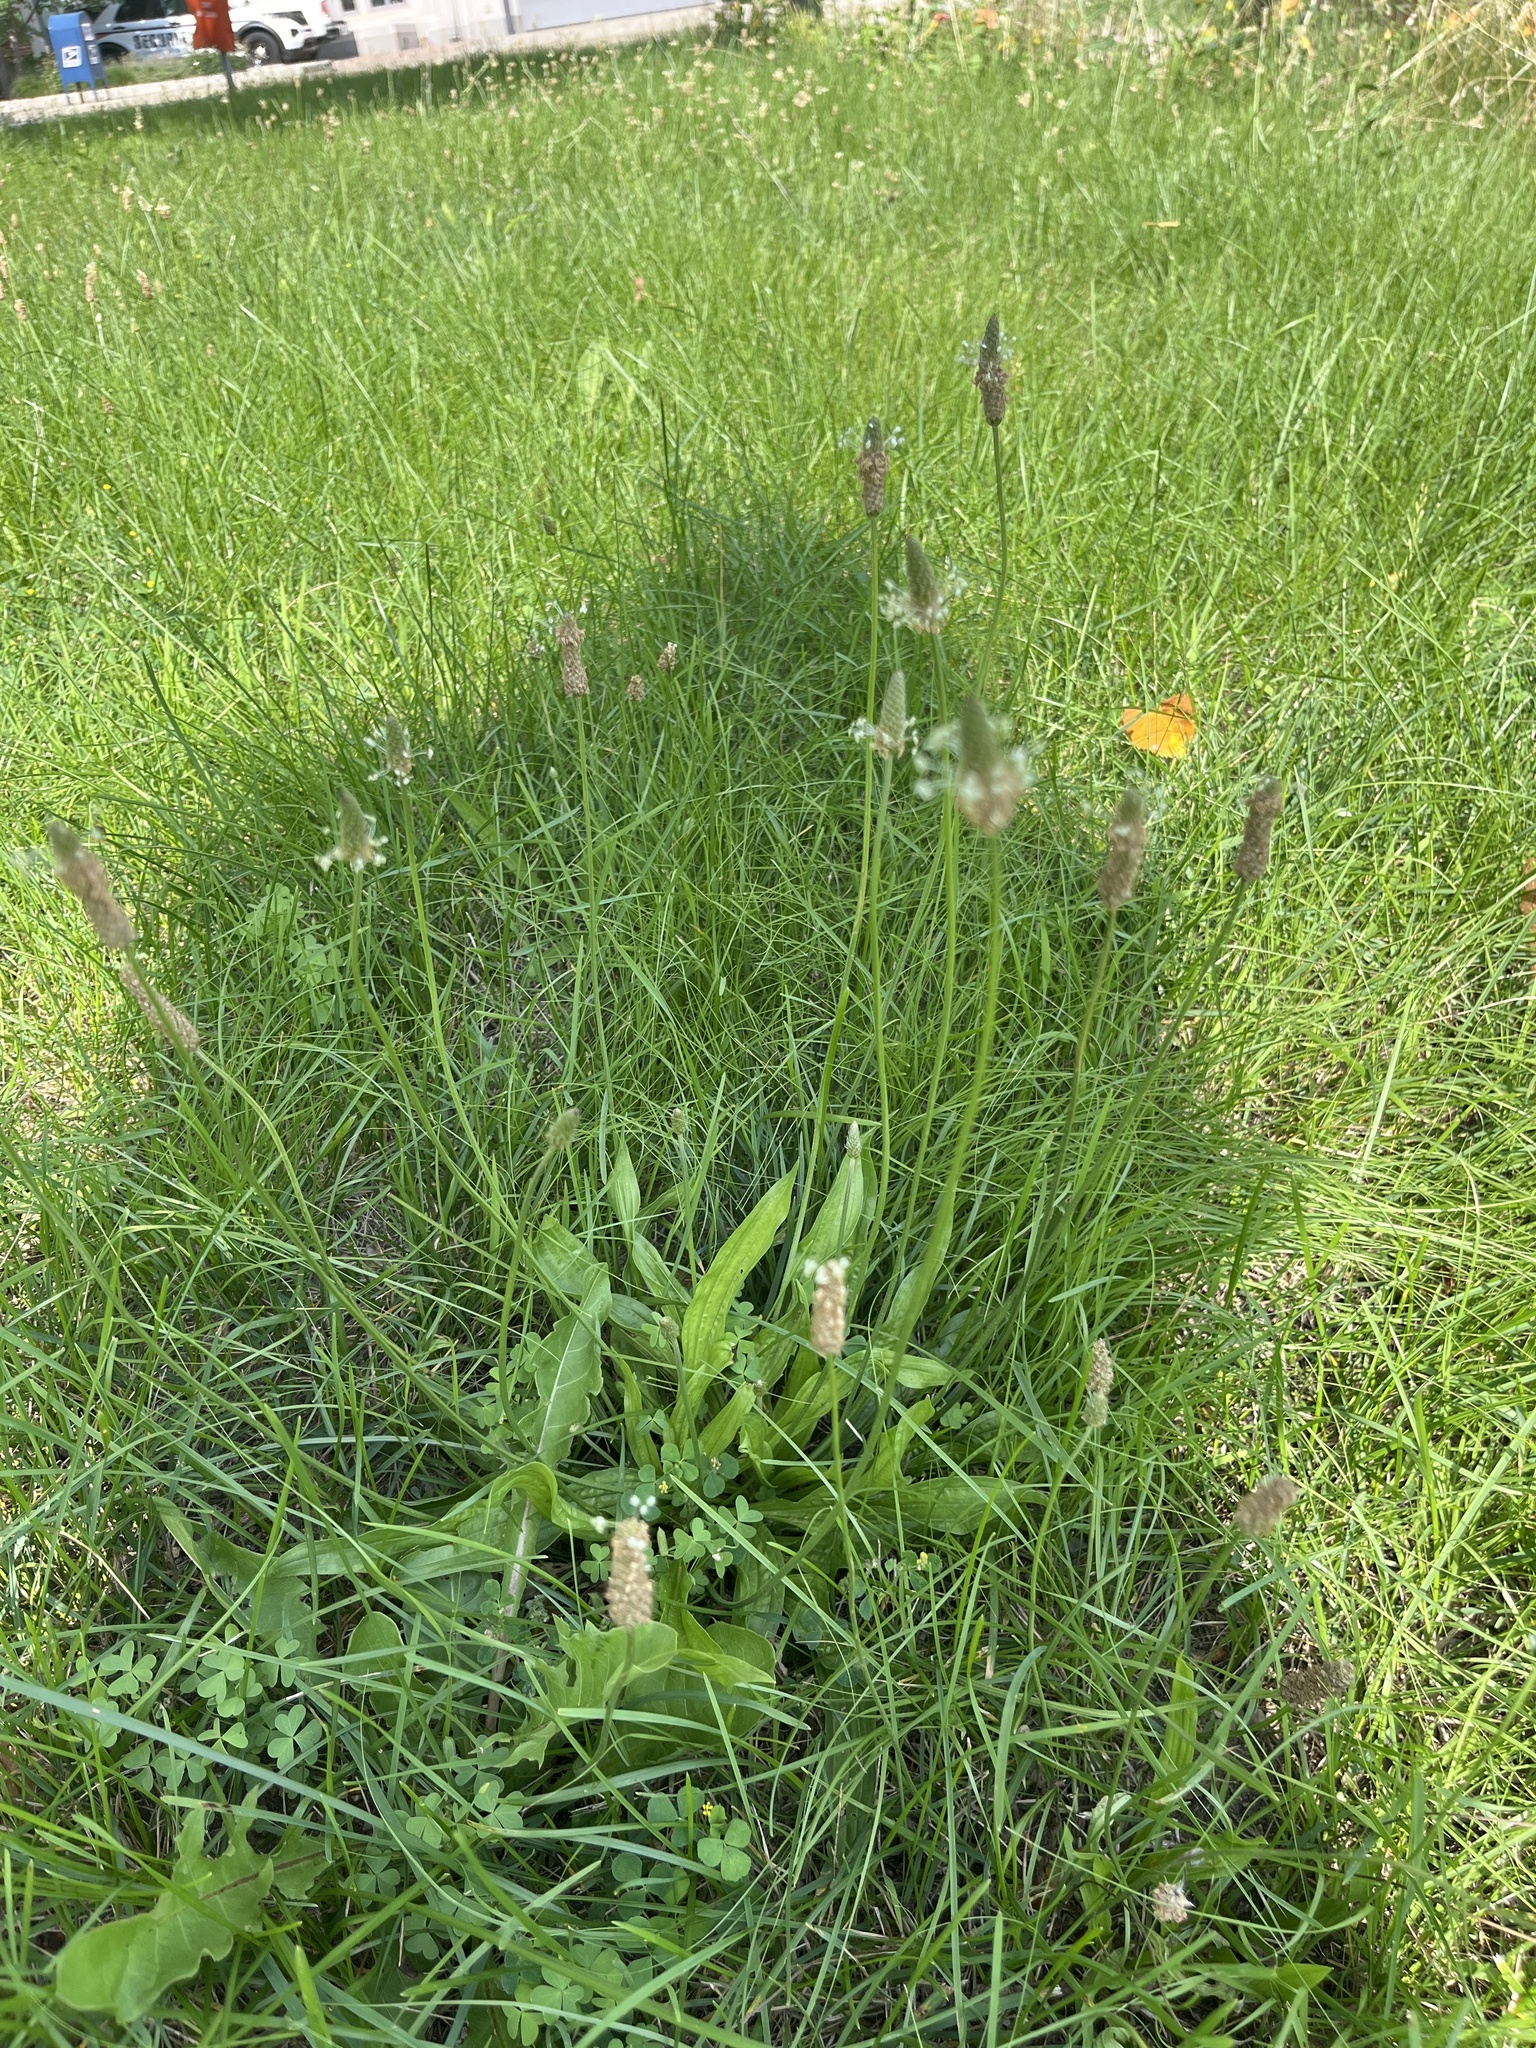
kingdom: Plantae
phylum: Tracheophyta
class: Magnoliopsida
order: Lamiales
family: Plantaginaceae
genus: Plantago
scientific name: Plantago lanceolata
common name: Ribwort plantain
